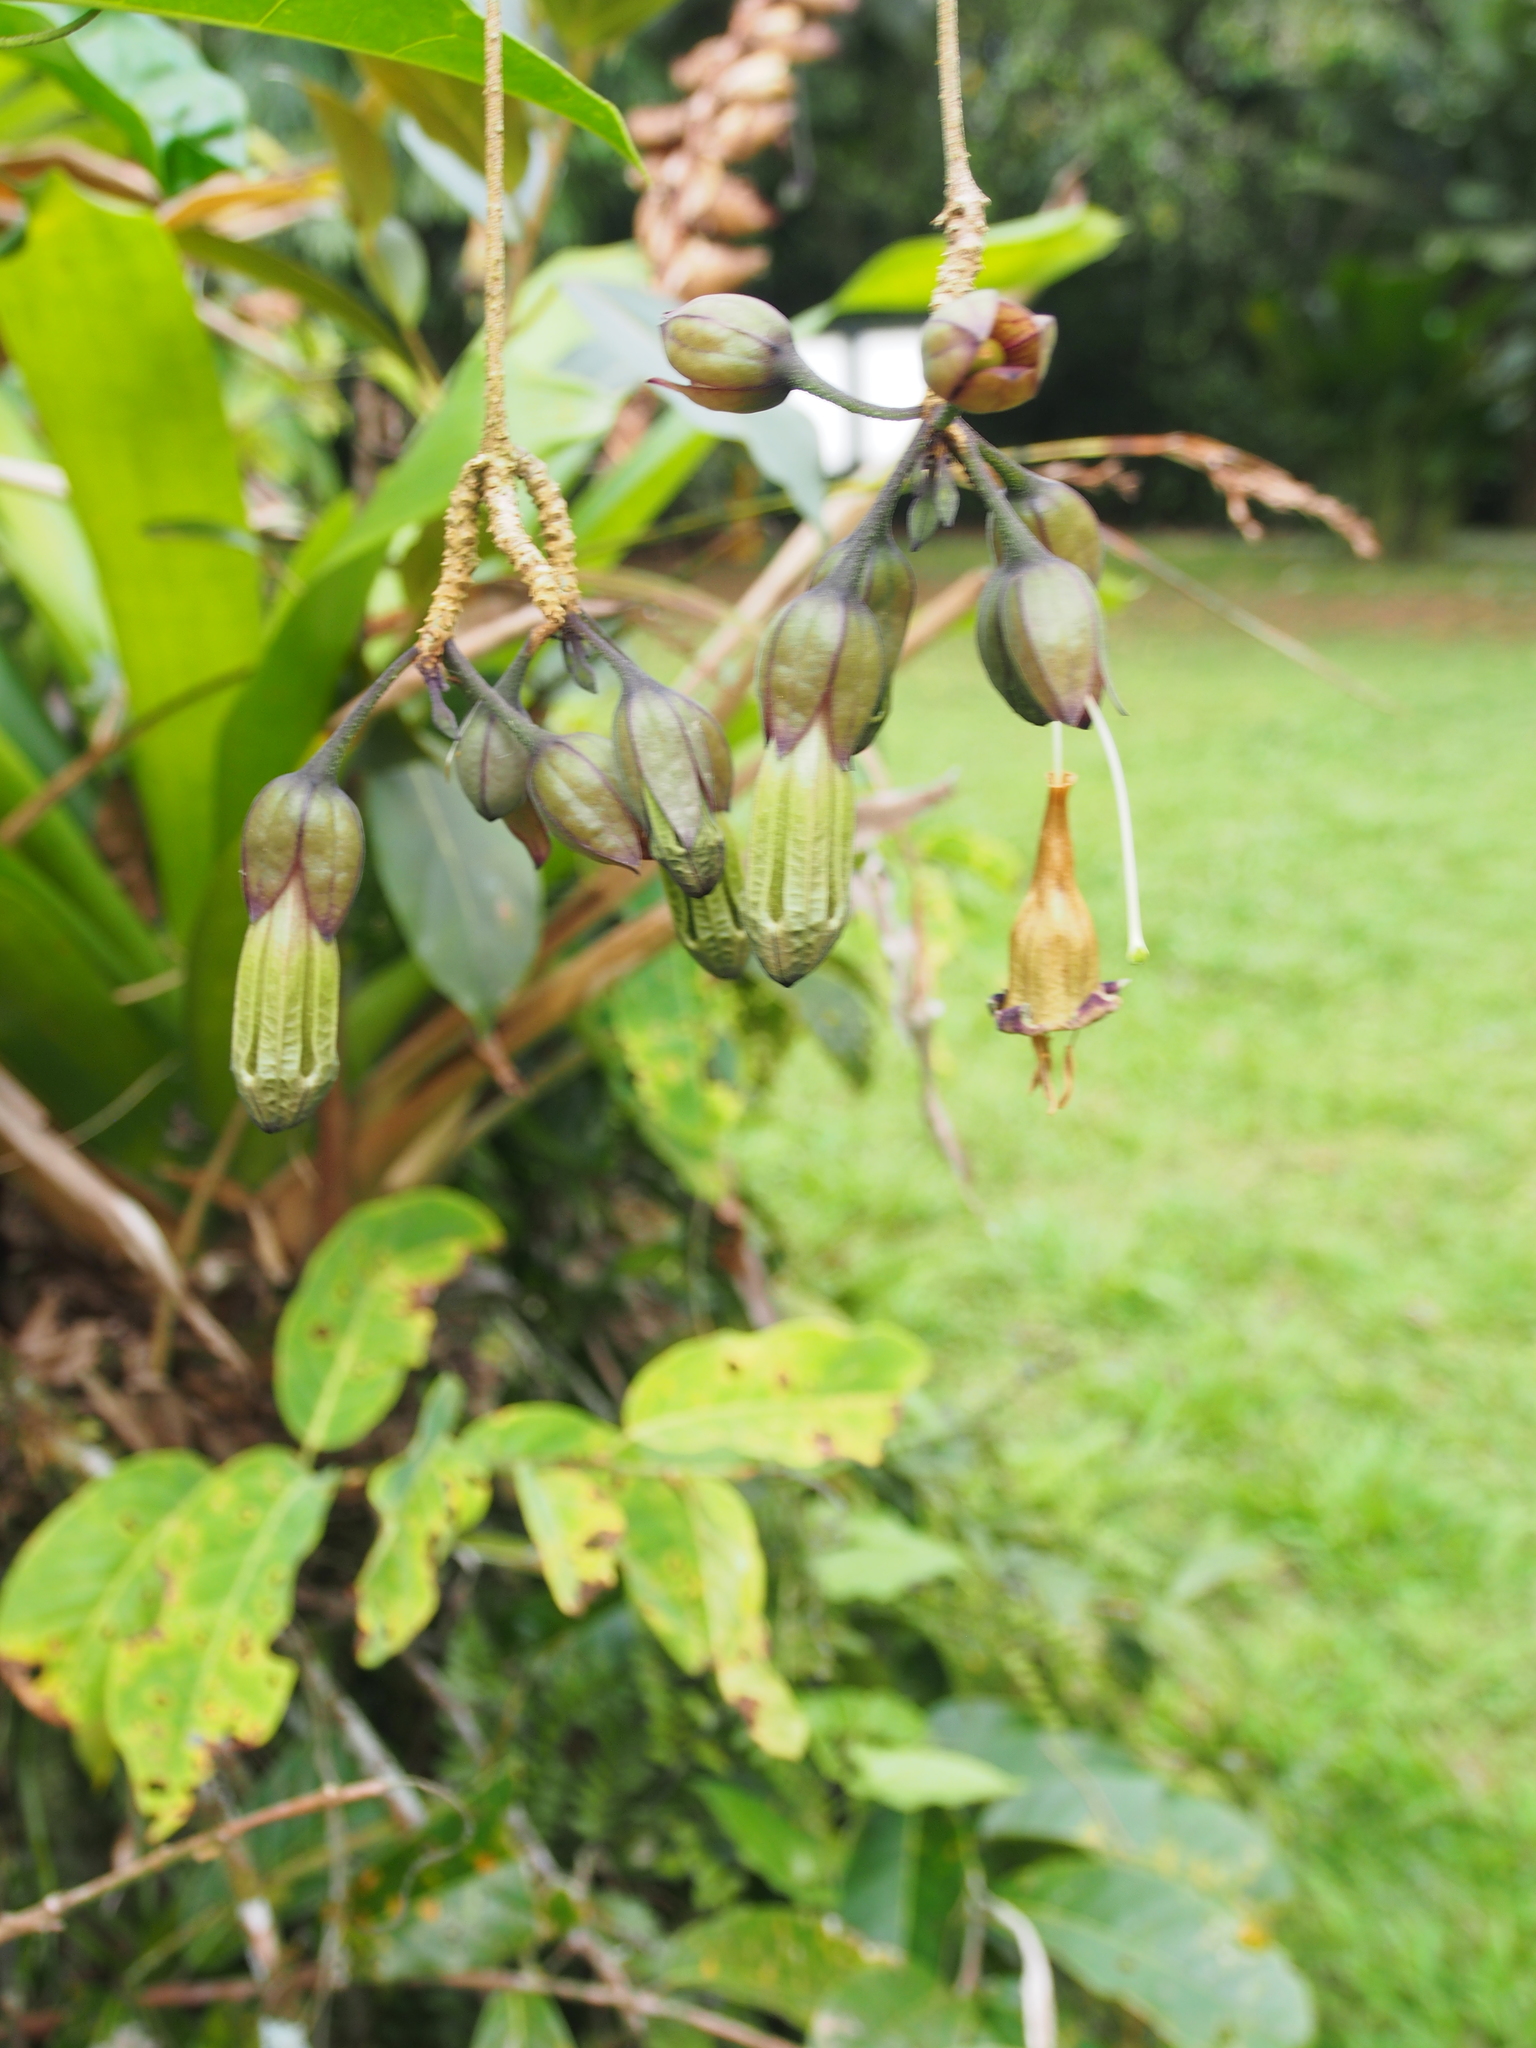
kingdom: Plantae
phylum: Tracheophyta
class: Magnoliopsida
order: Solanales
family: Solanaceae
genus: Merinthopodium
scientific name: Merinthopodium neuranthum
